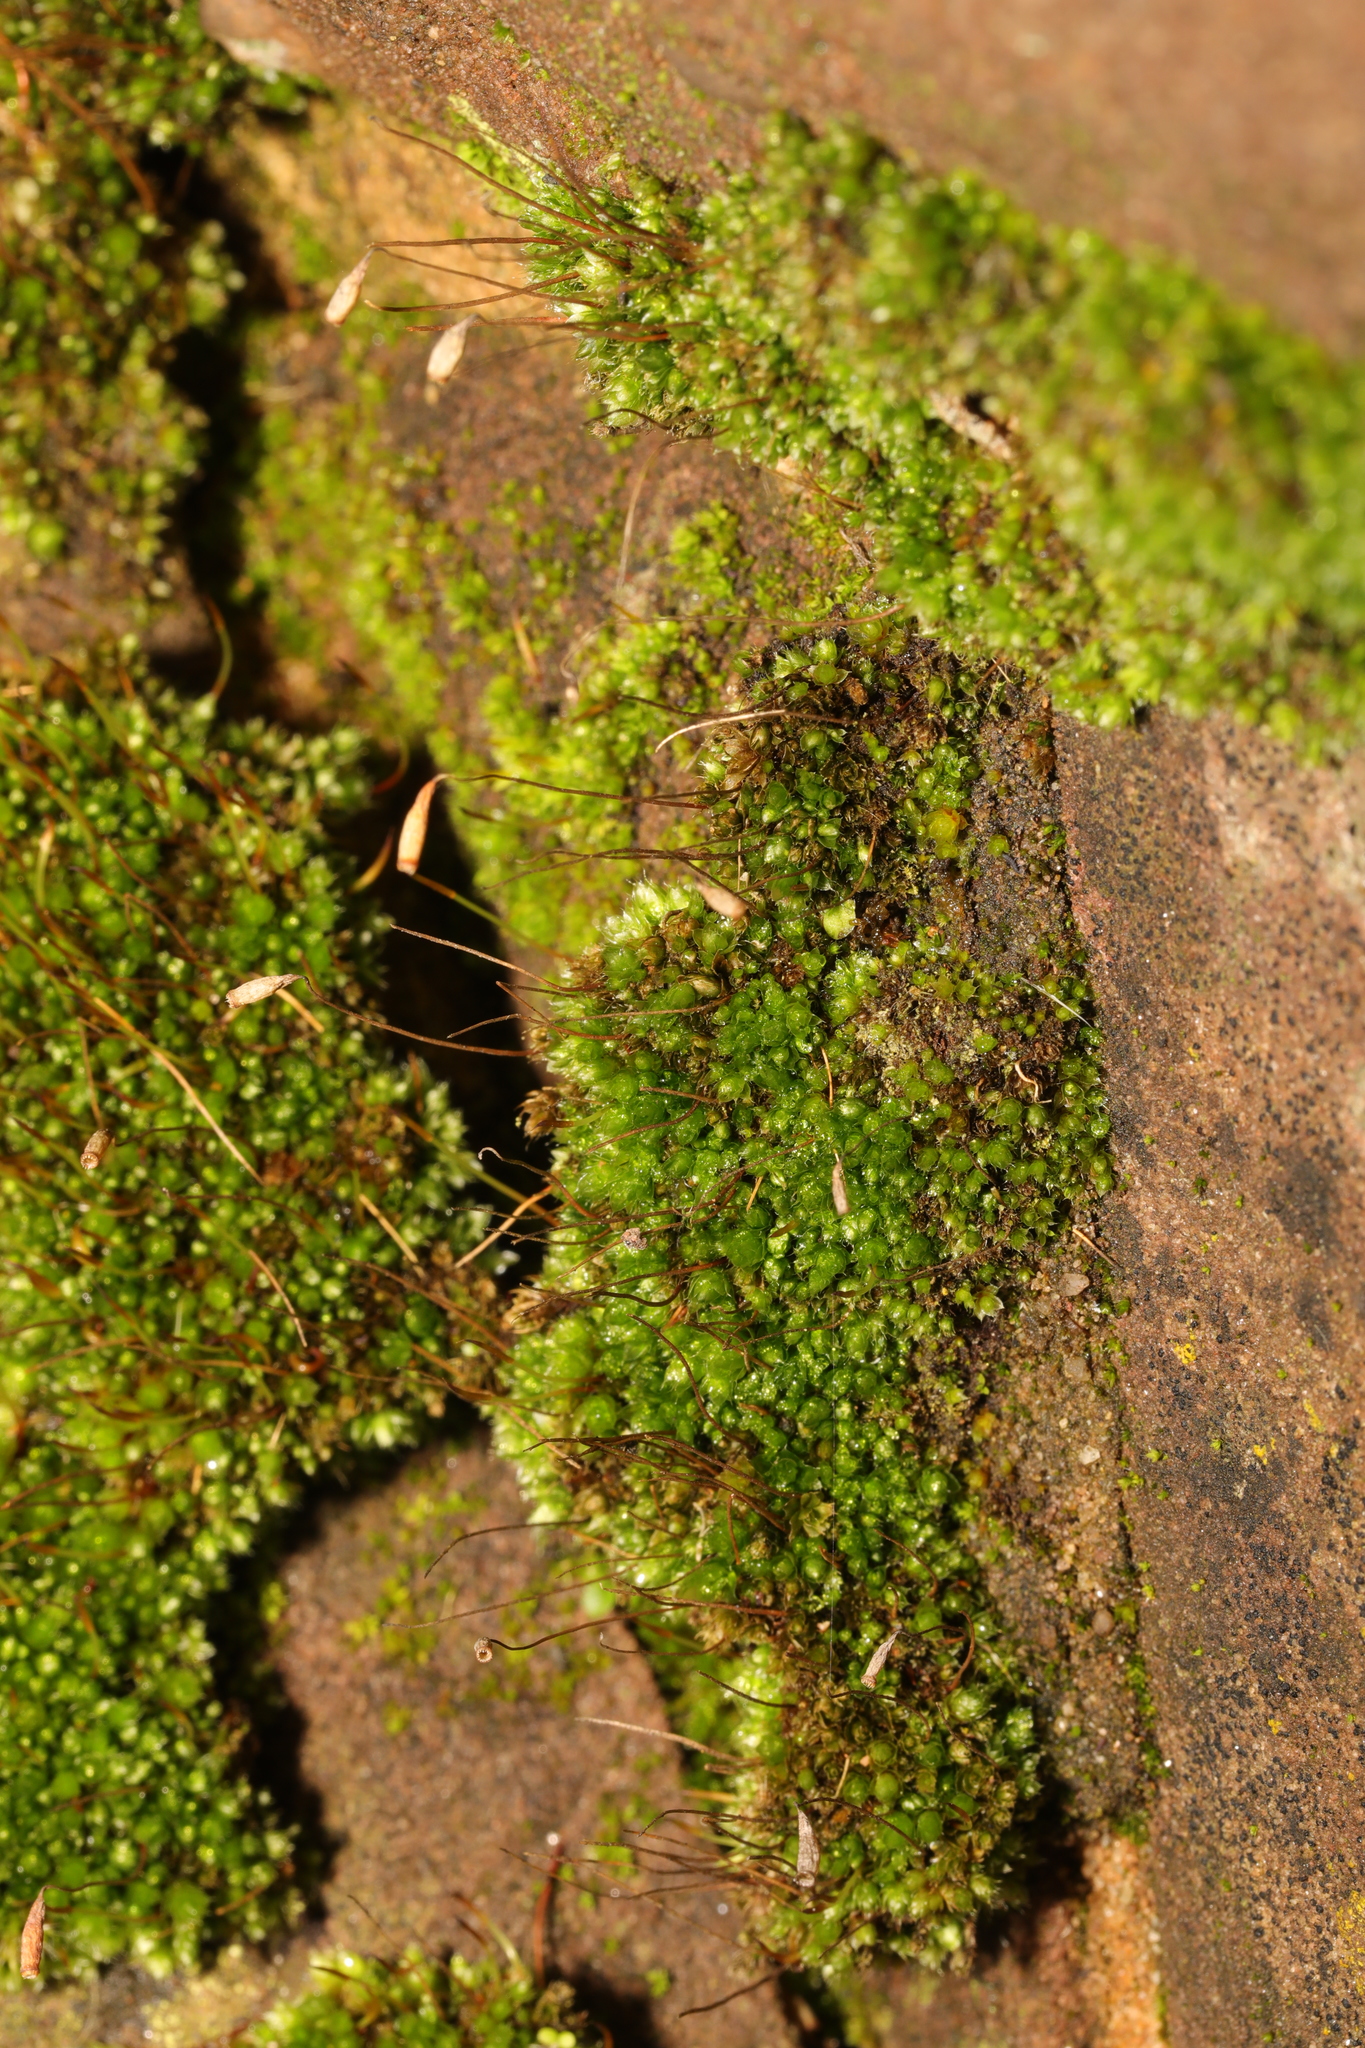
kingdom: Plantae
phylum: Bryophyta
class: Bryopsida
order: Bryales
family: Bryaceae
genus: Rosulabryum
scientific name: Rosulabryum capillare
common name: Capillary thread-moss
